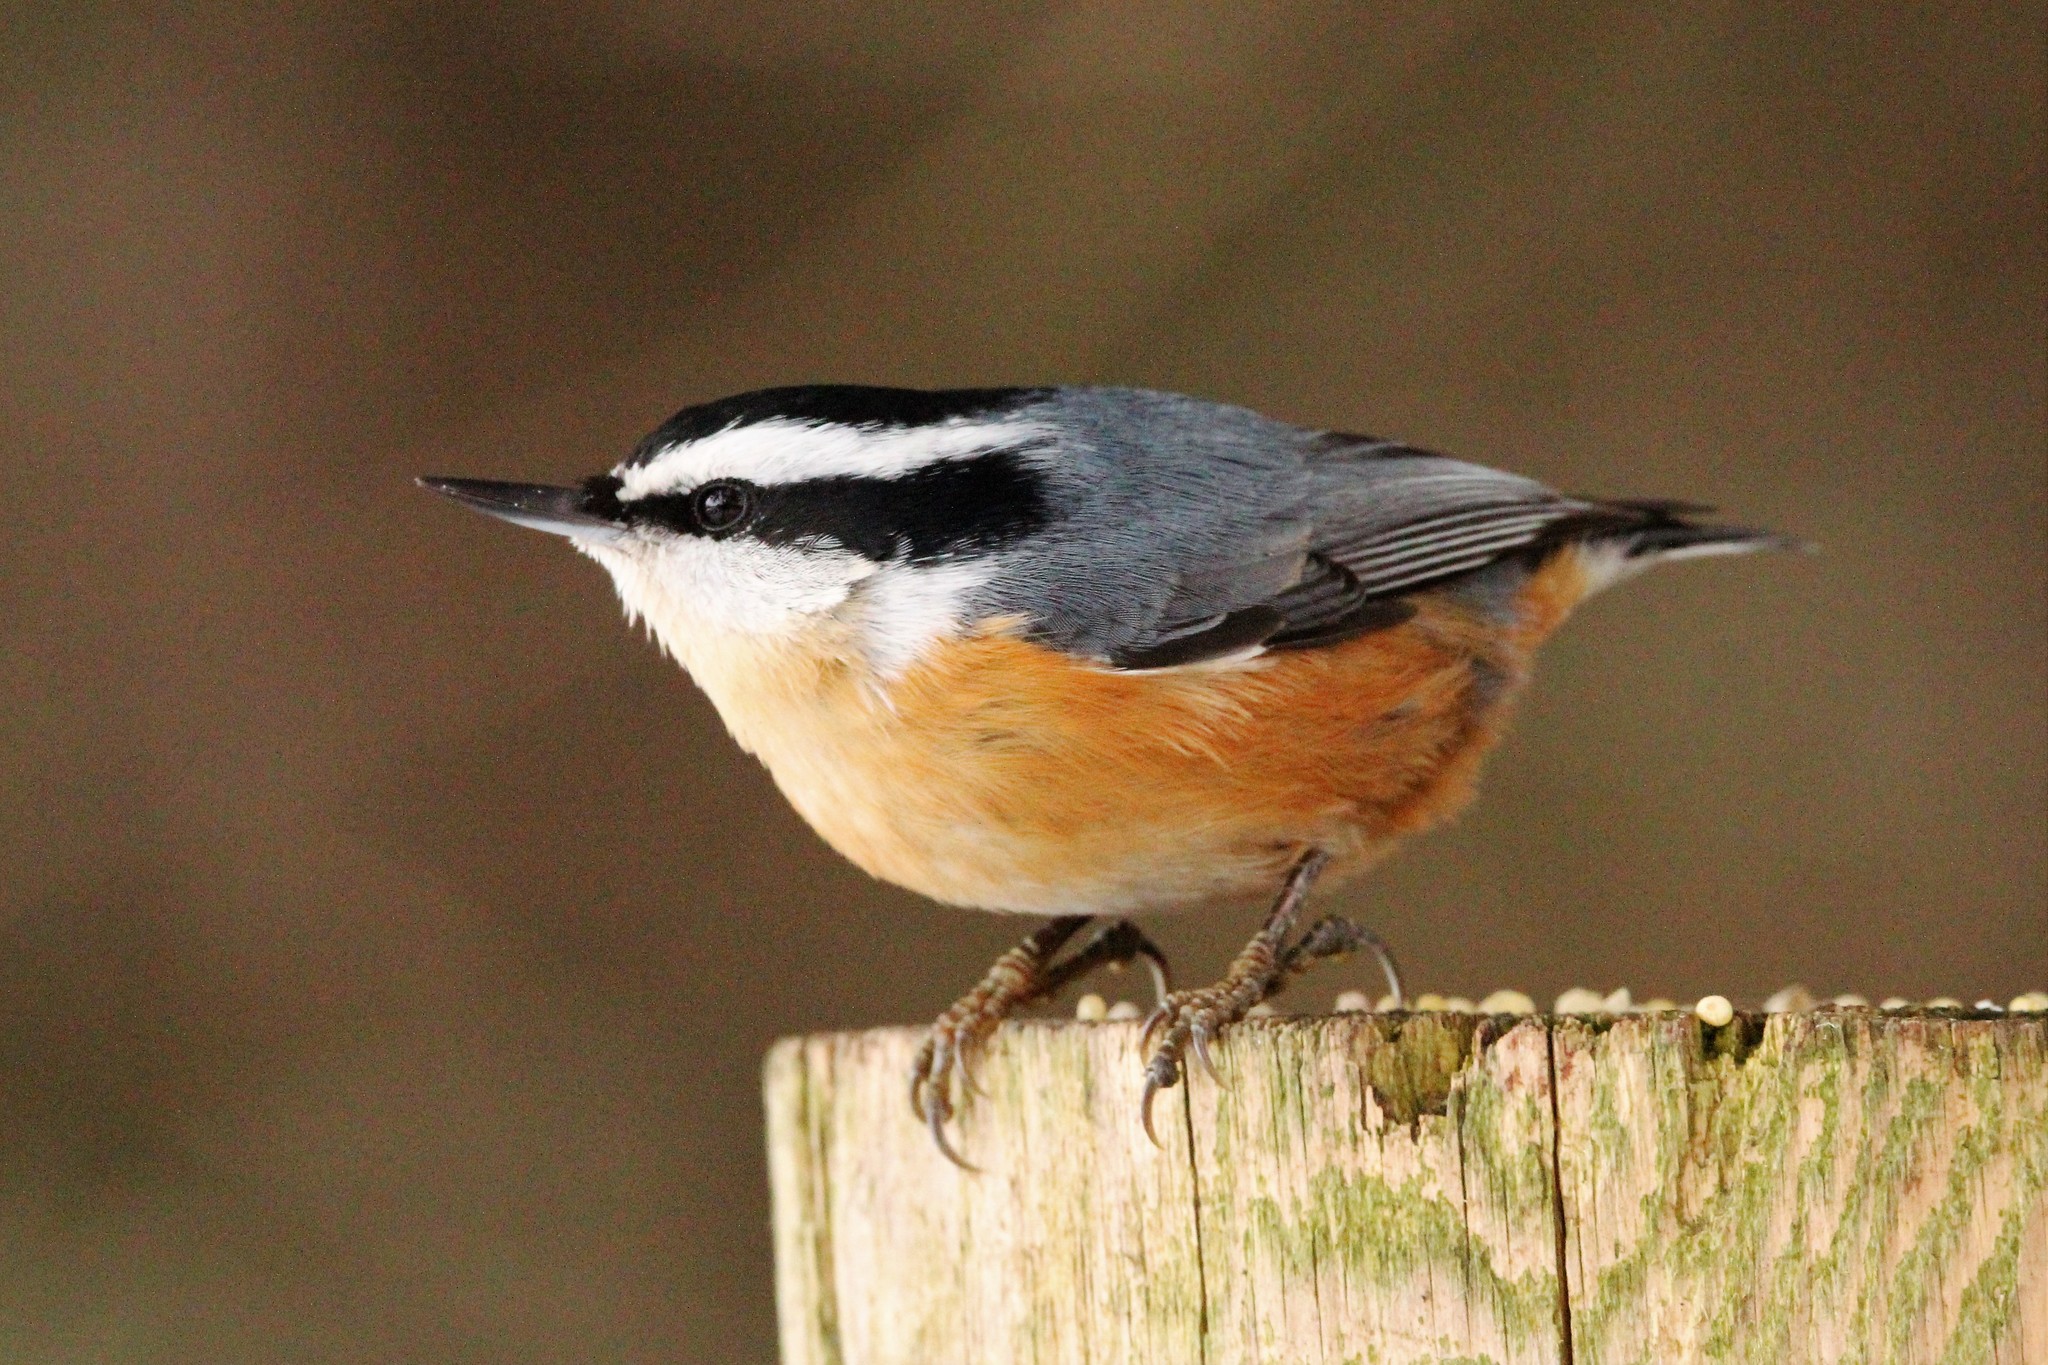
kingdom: Animalia
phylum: Chordata
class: Aves
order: Passeriformes
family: Sittidae
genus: Sitta
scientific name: Sitta canadensis
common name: Red-breasted nuthatch
